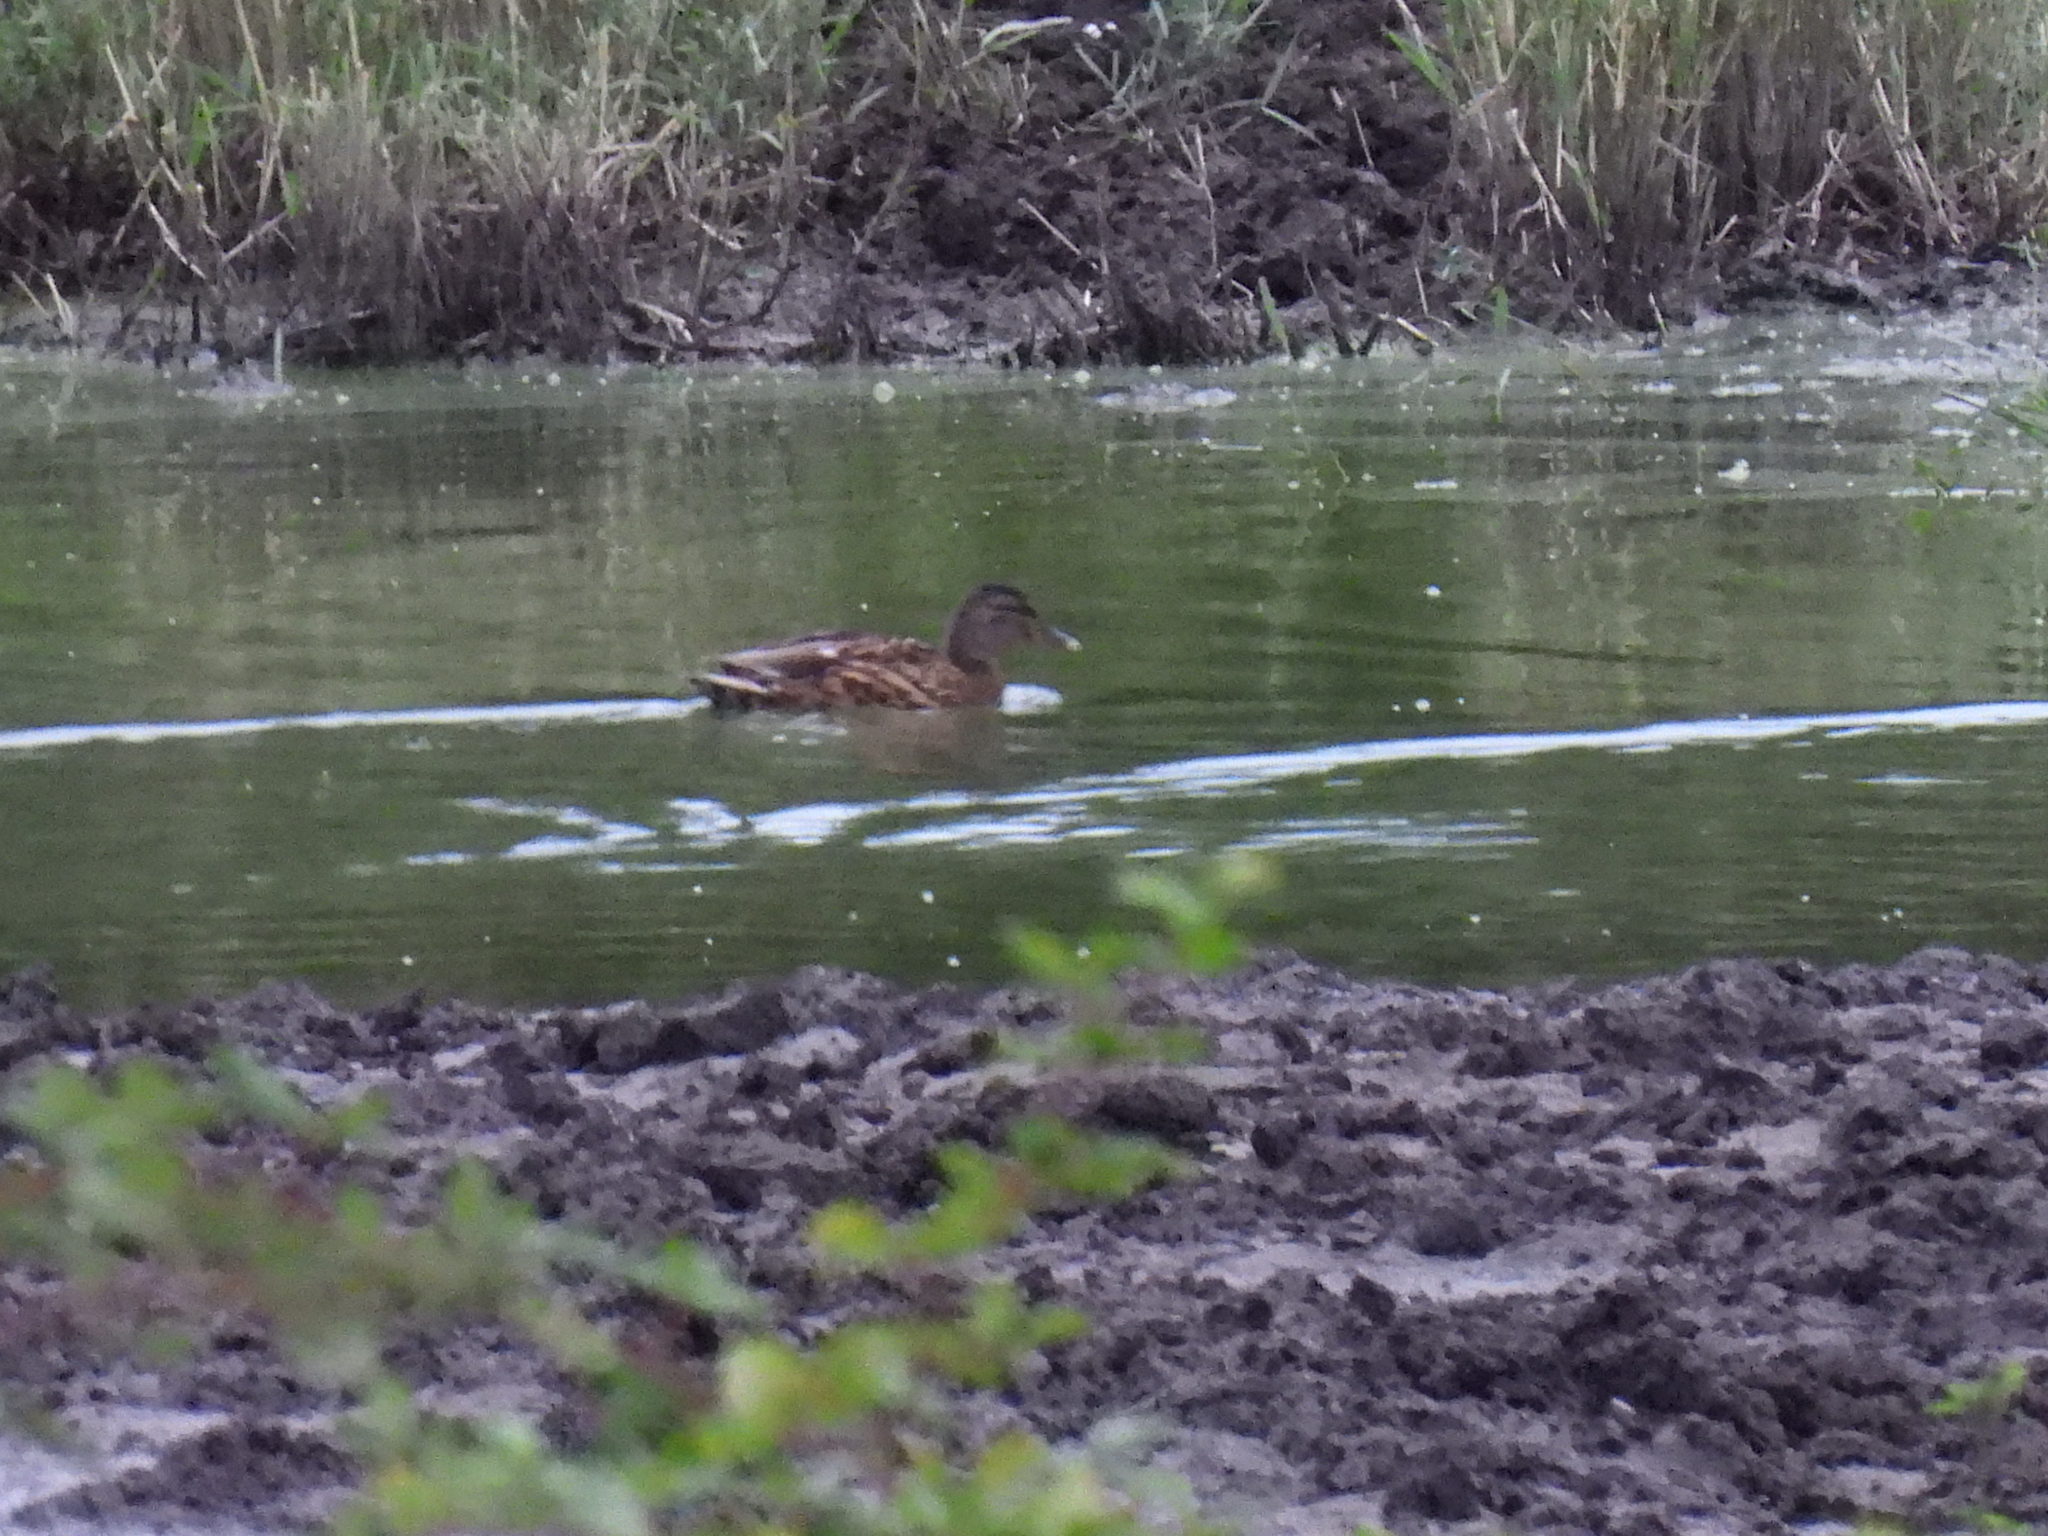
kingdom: Animalia
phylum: Chordata
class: Aves
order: Anseriformes
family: Anatidae
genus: Anas
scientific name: Anas platyrhynchos
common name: Mallard
